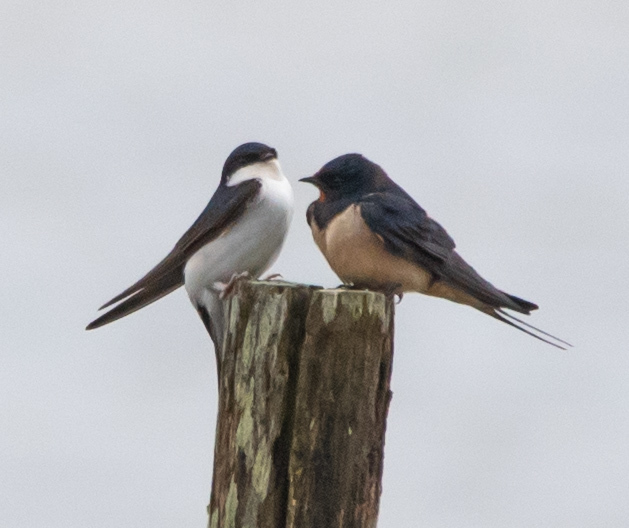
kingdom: Animalia
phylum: Chordata
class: Aves
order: Passeriformes
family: Hirundinidae
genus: Delichon
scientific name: Delichon urbicum
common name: Common house martin
